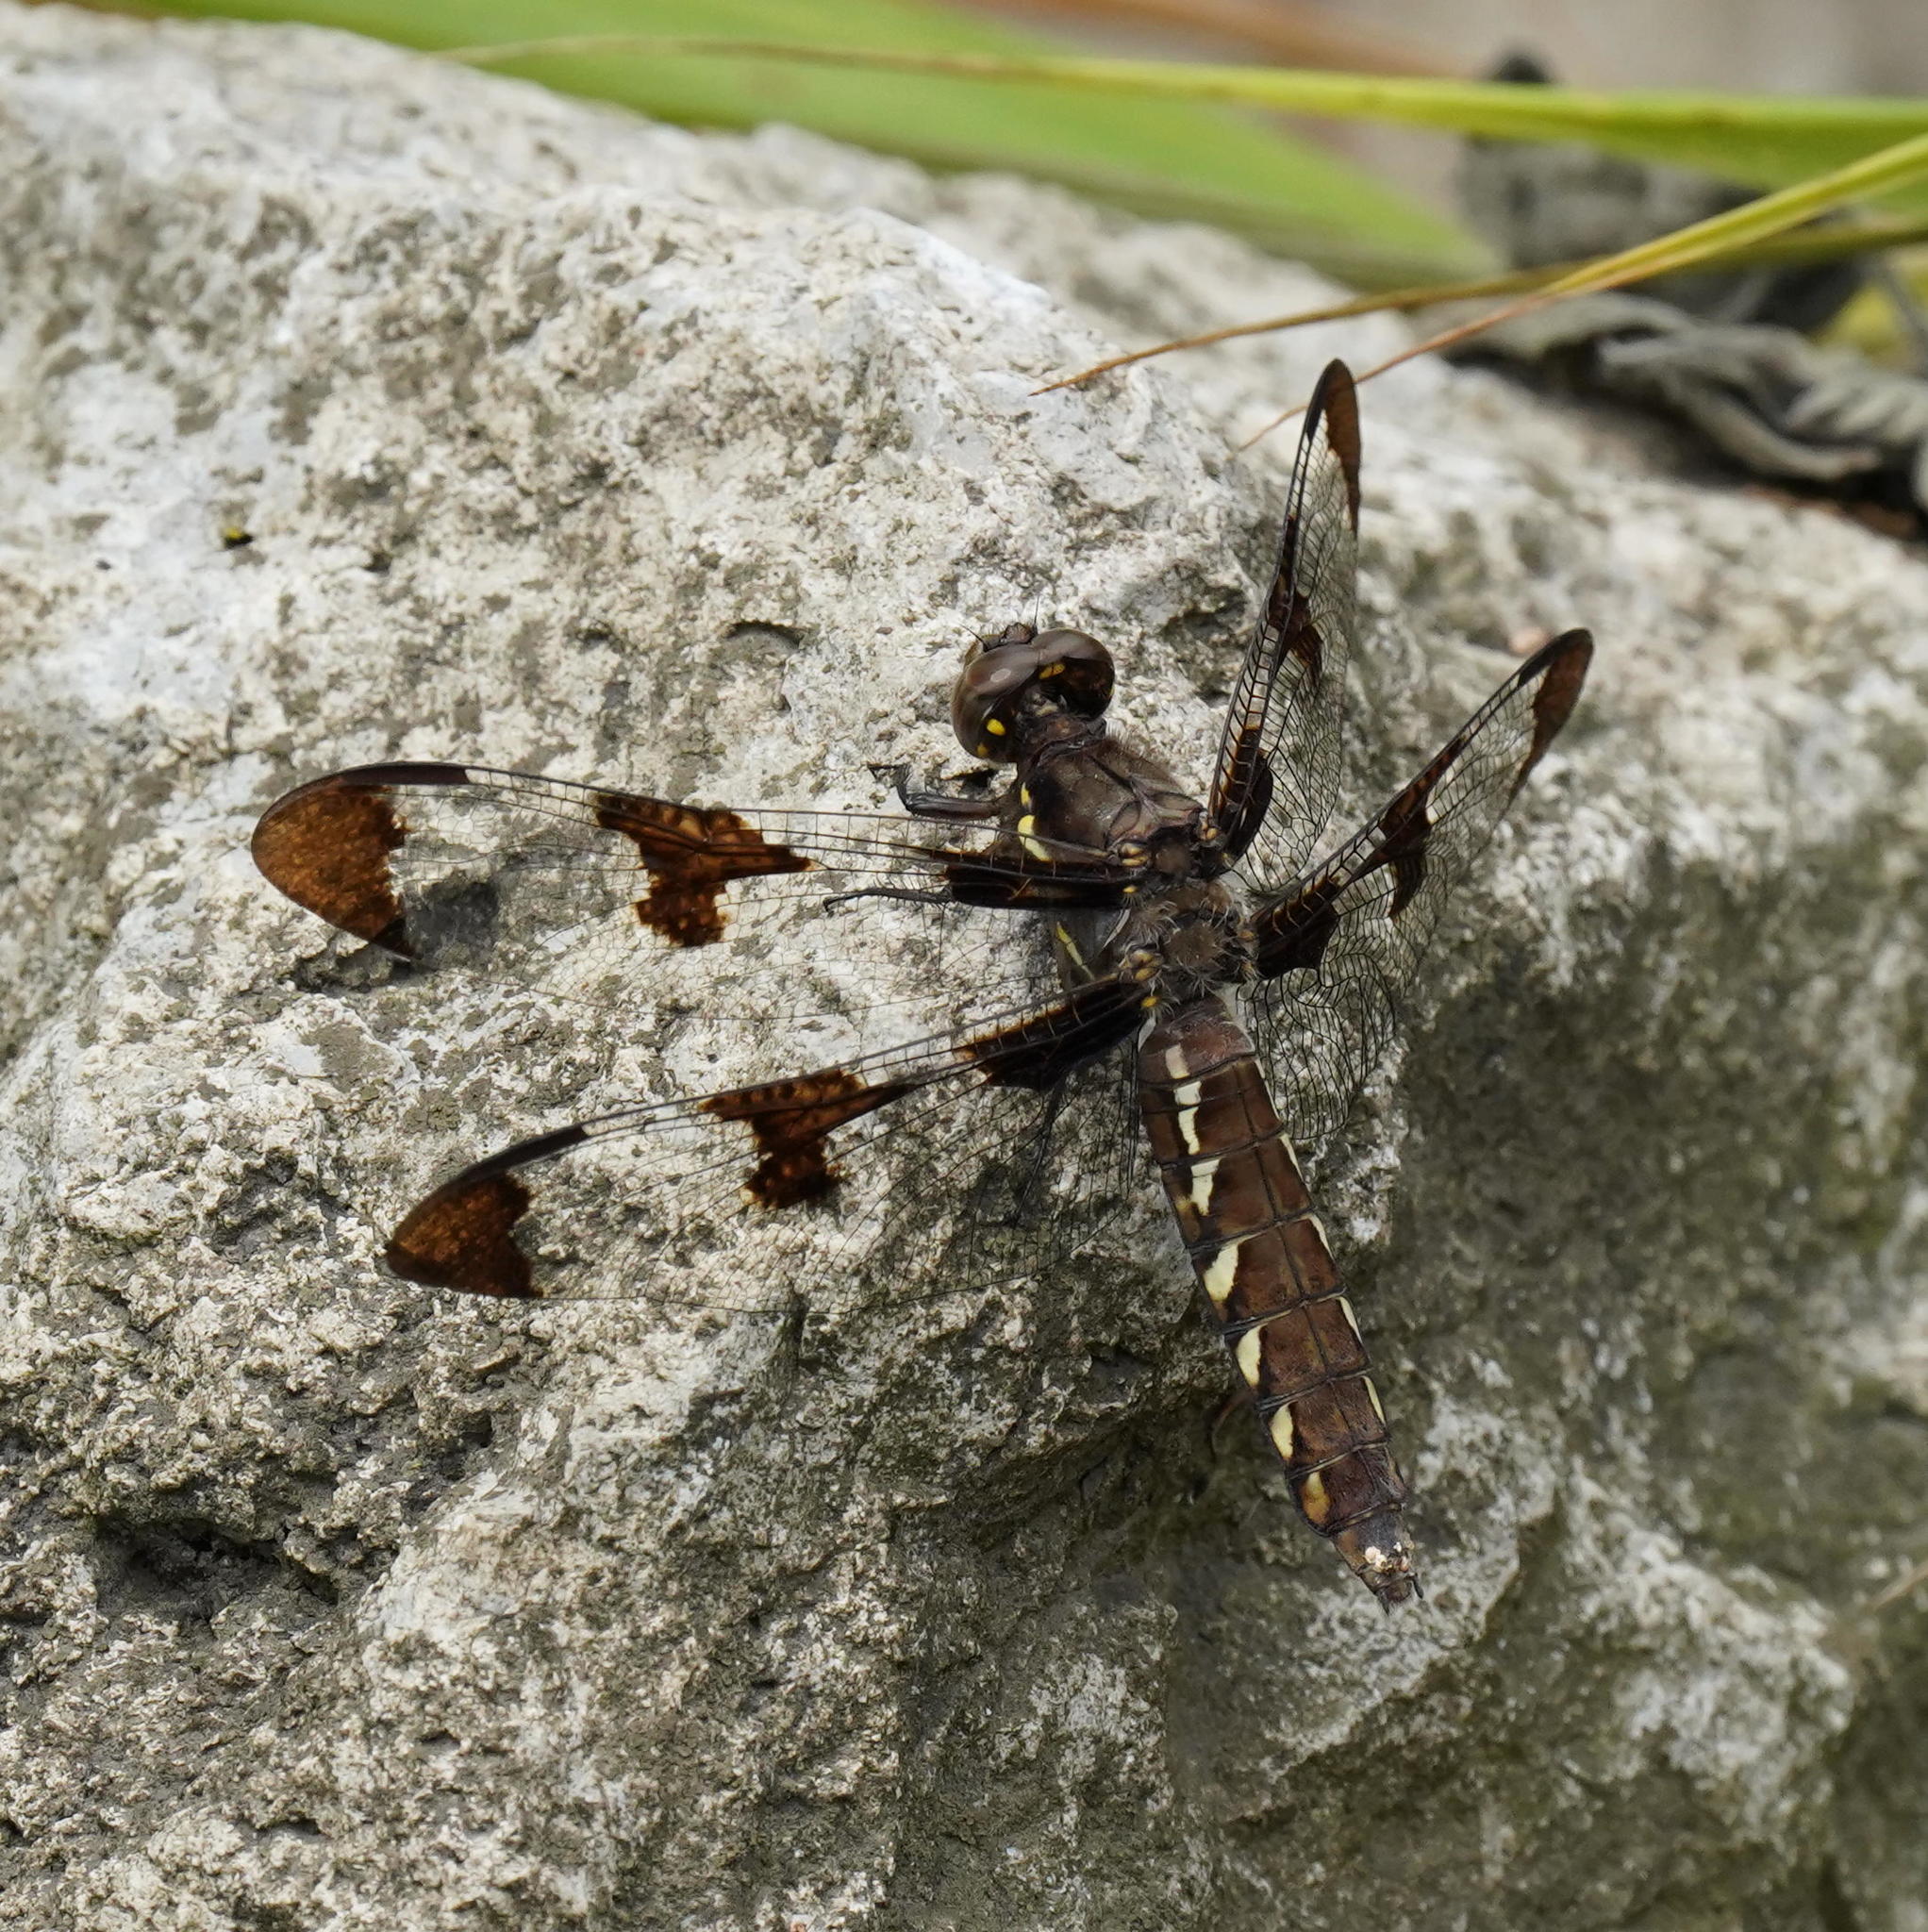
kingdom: Animalia
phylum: Arthropoda
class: Insecta
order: Odonata
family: Libellulidae
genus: Plathemis
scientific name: Plathemis lydia
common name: Common whitetail
